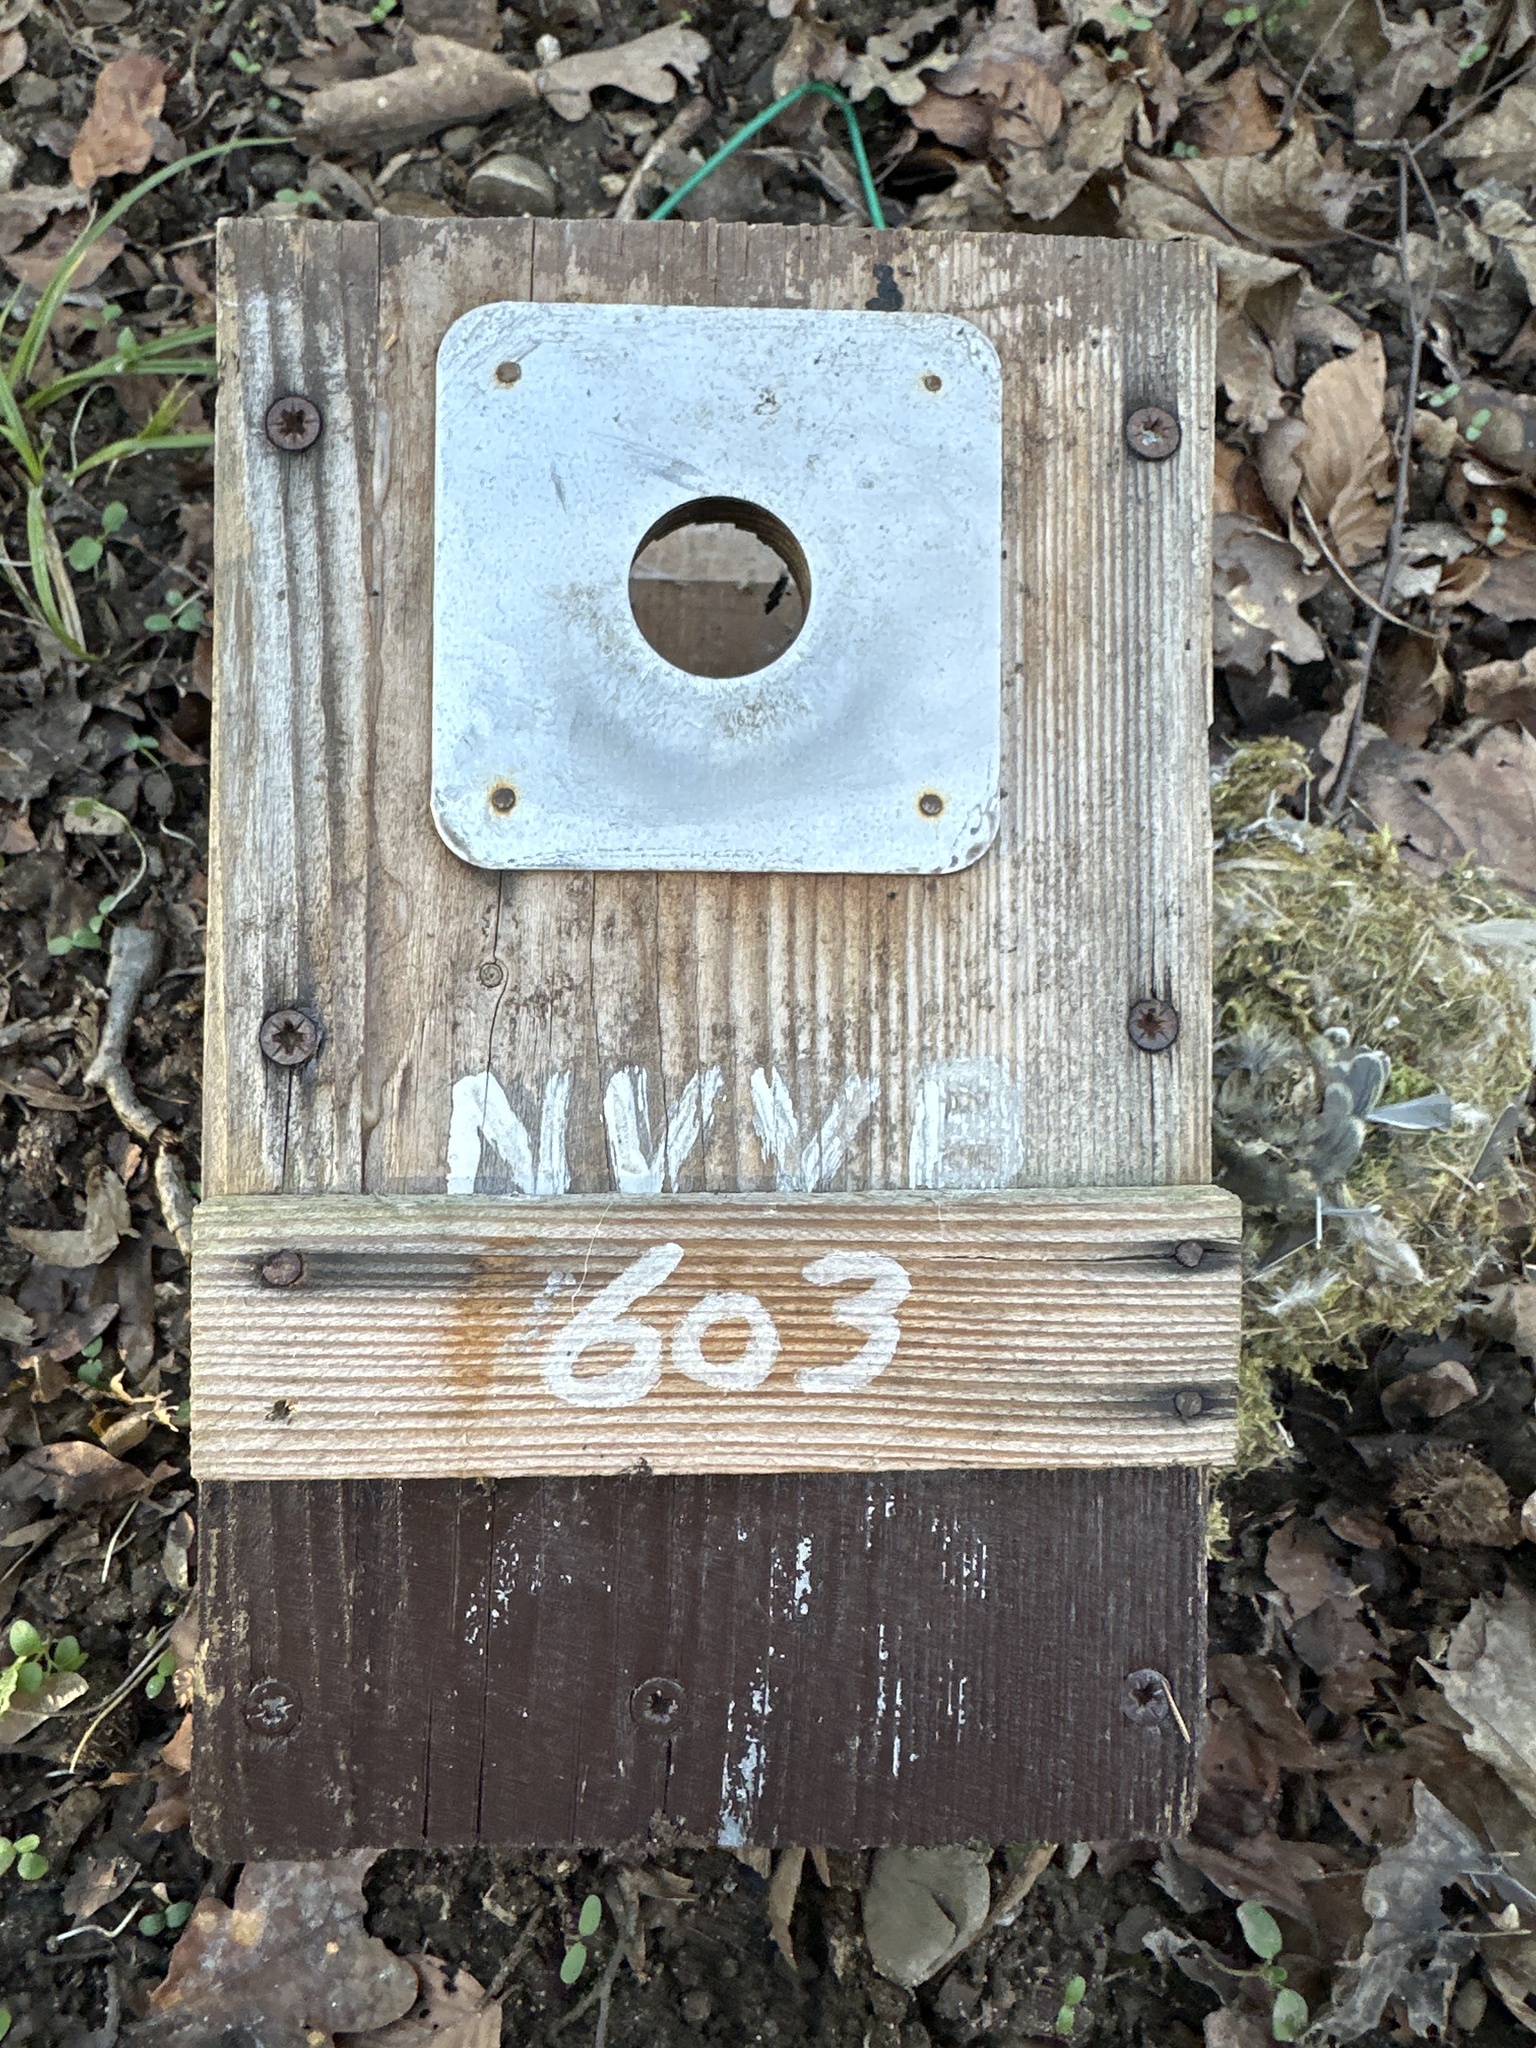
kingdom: Animalia
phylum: Chordata
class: Aves
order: Passeriformes
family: Paridae
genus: Cyanistes
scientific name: Cyanistes caeruleus
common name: Eurasian blue tit
